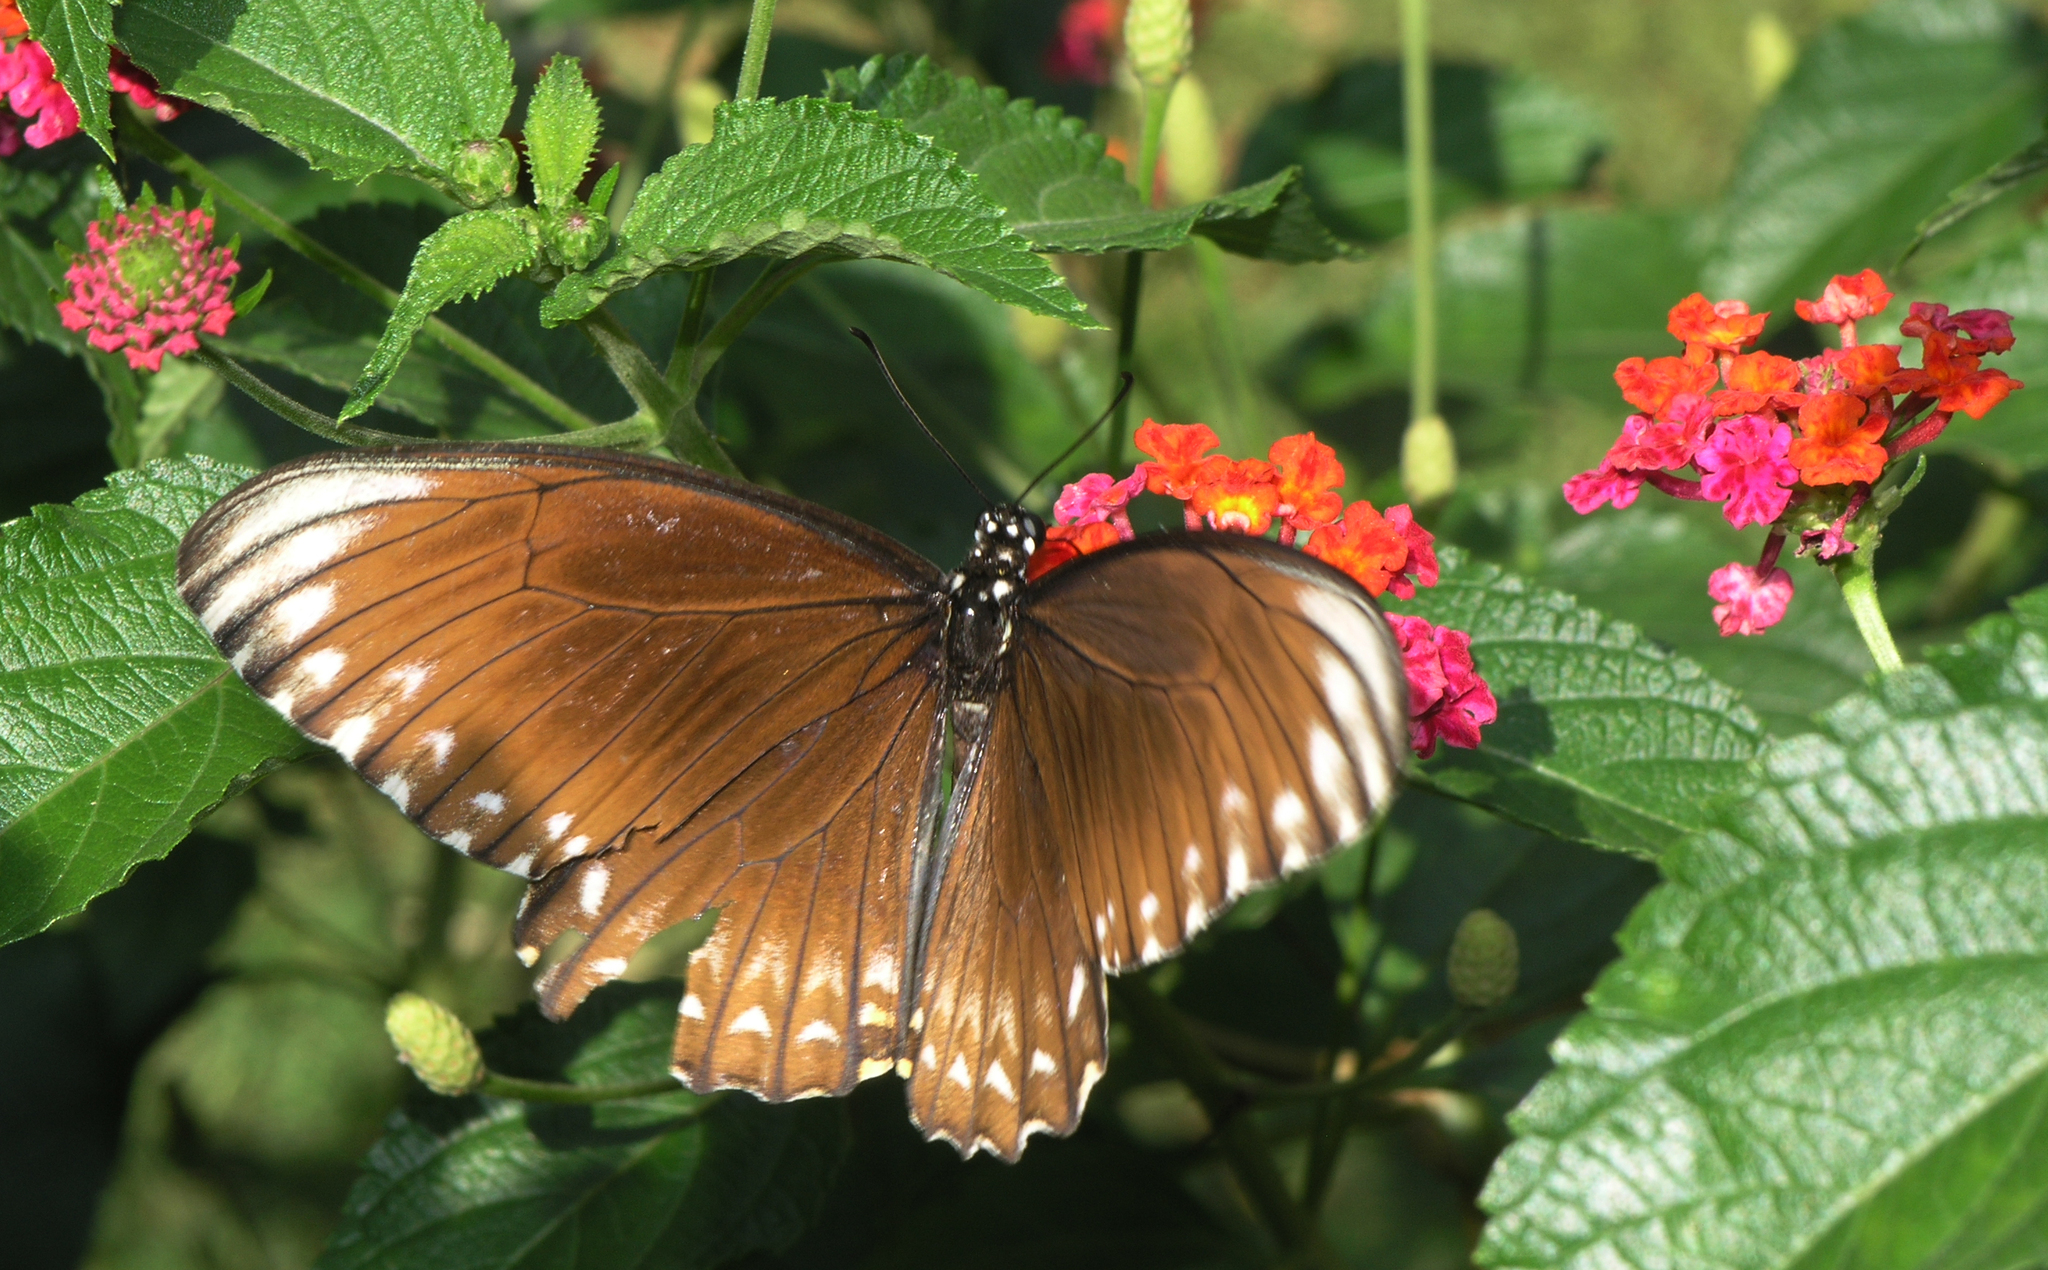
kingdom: Animalia
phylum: Arthropoda
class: Insecta
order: Lepidoptera
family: Papilionidae
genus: Chilasa
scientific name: Chilasa clytia
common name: Common mime
